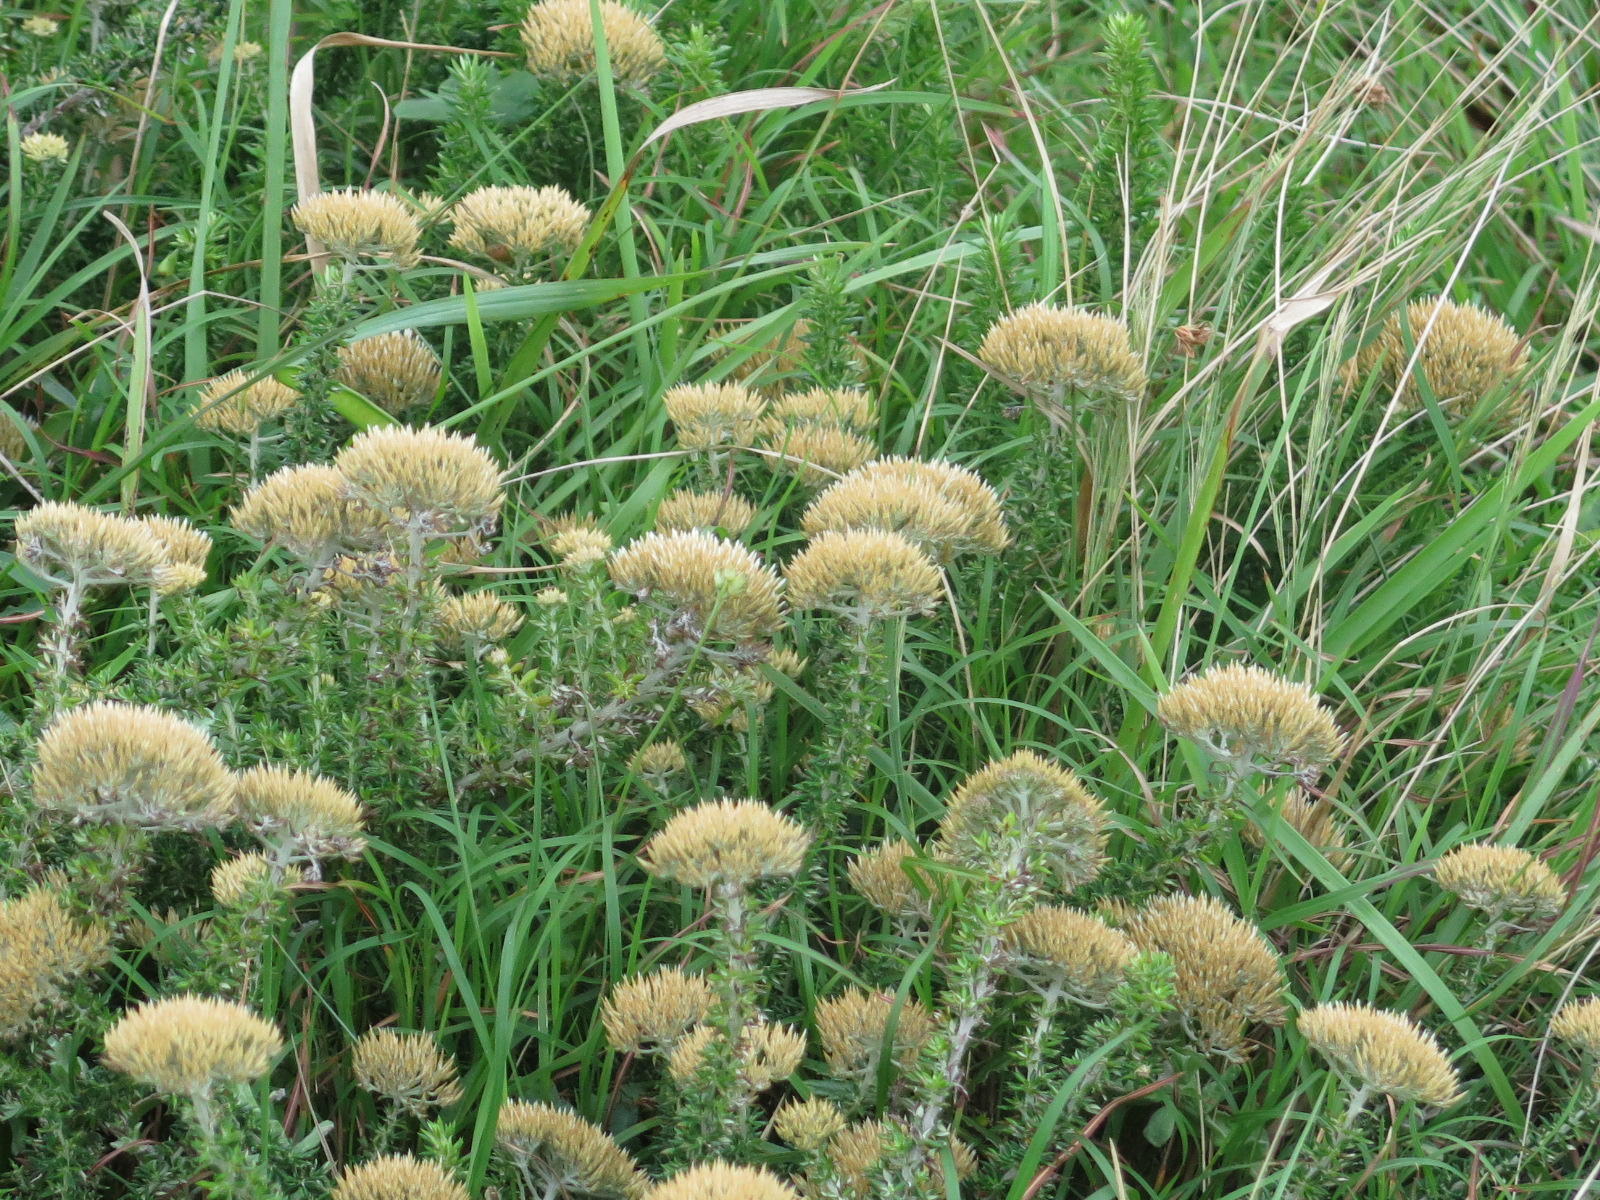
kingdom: Plantae
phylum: Tracheophyta
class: Magnoliopsida
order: Asterales
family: Asteraceae
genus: Metalasia
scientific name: Metalasia muricata
